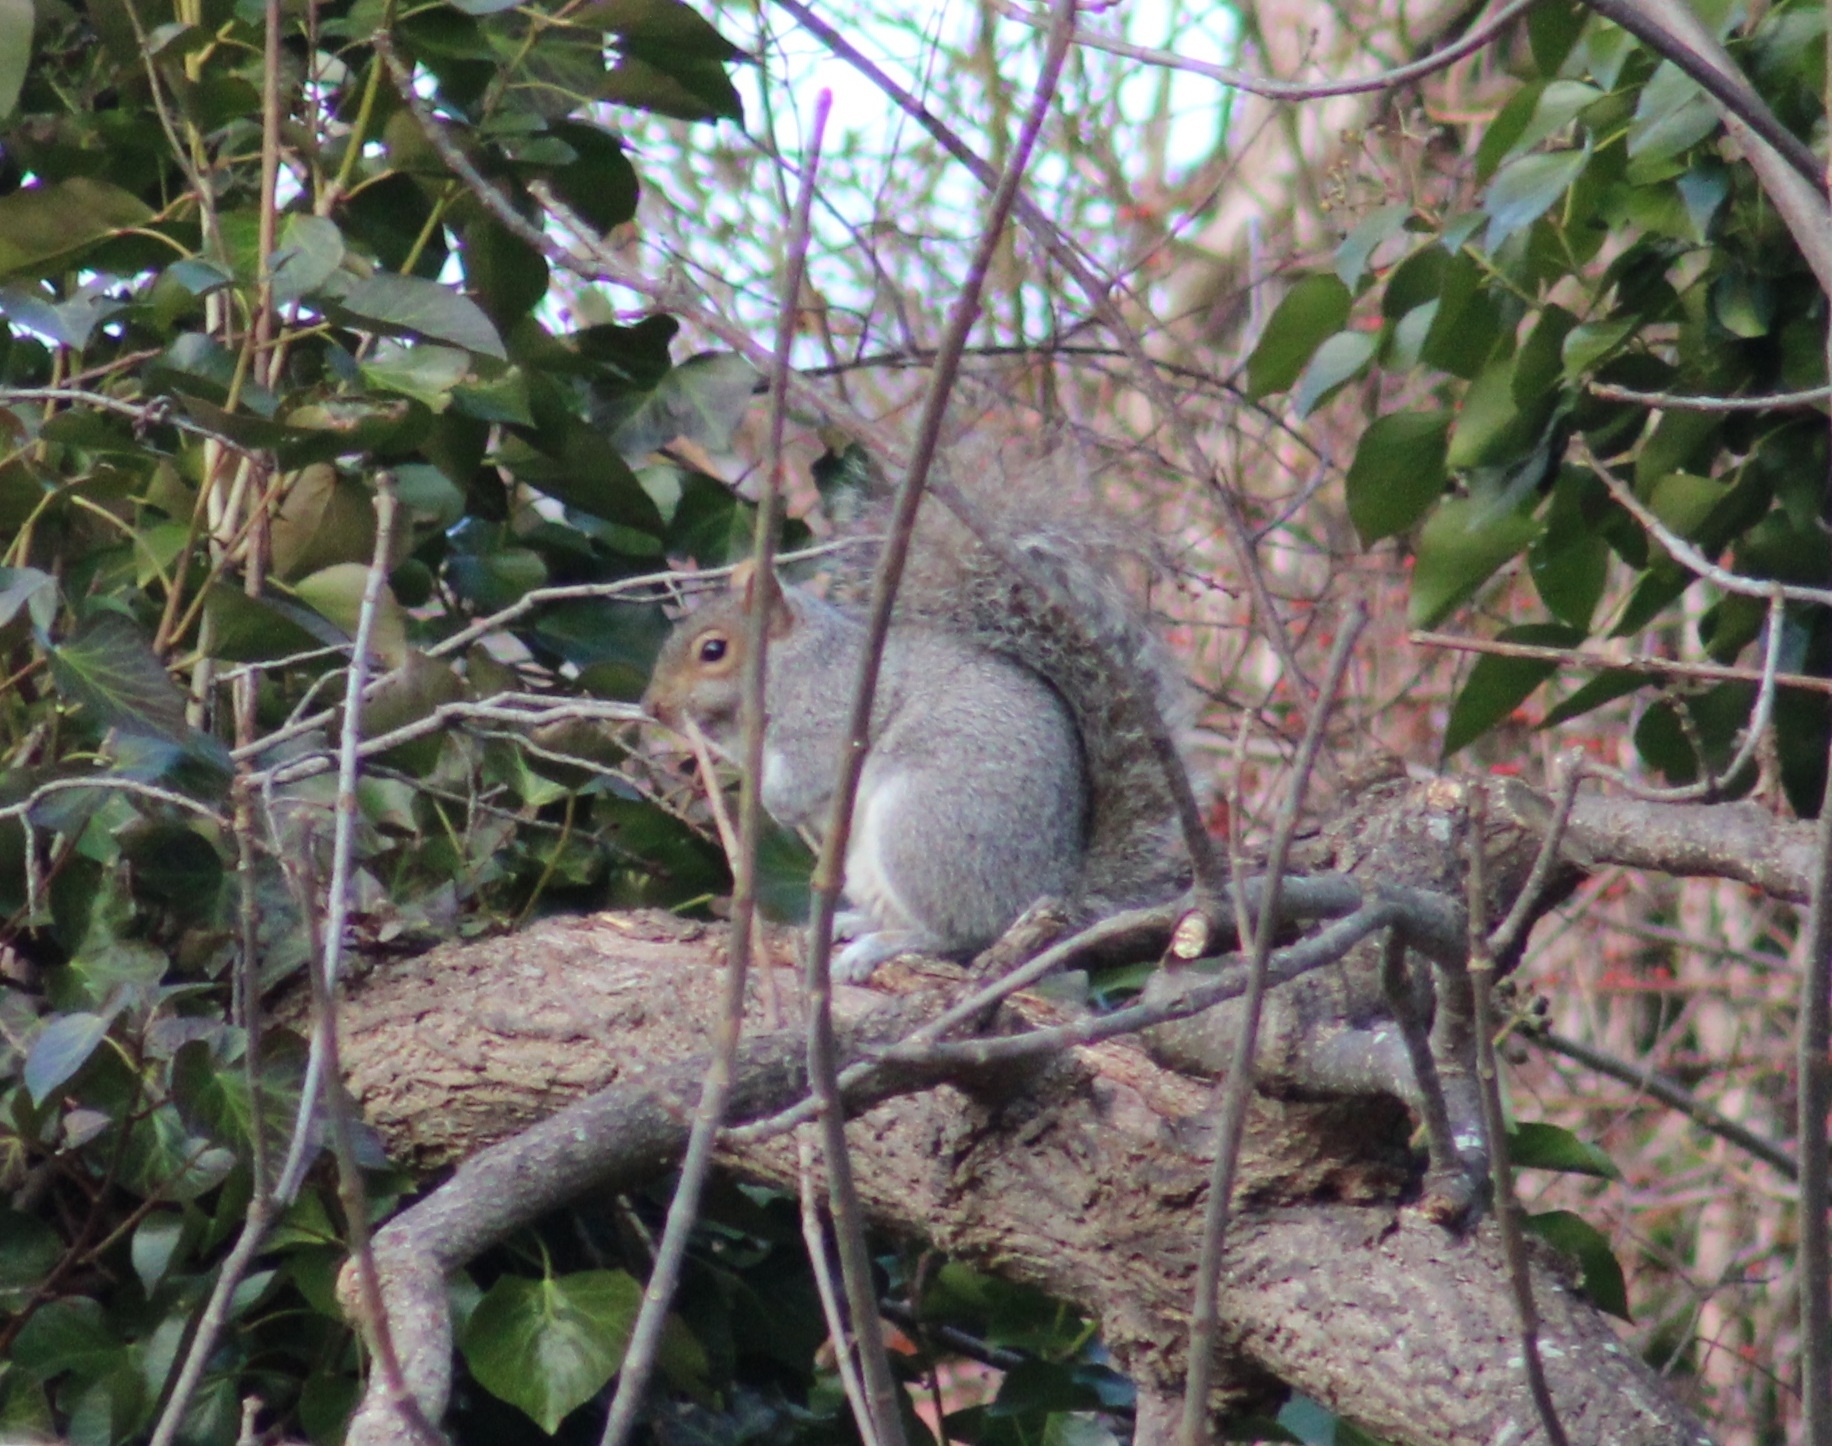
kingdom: Animalia
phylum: Chordata
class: Mammalia
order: Rodentia
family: Sciuridae
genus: Sciurus
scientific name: Sciurus carolinensis
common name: Eastern gray squirrel
